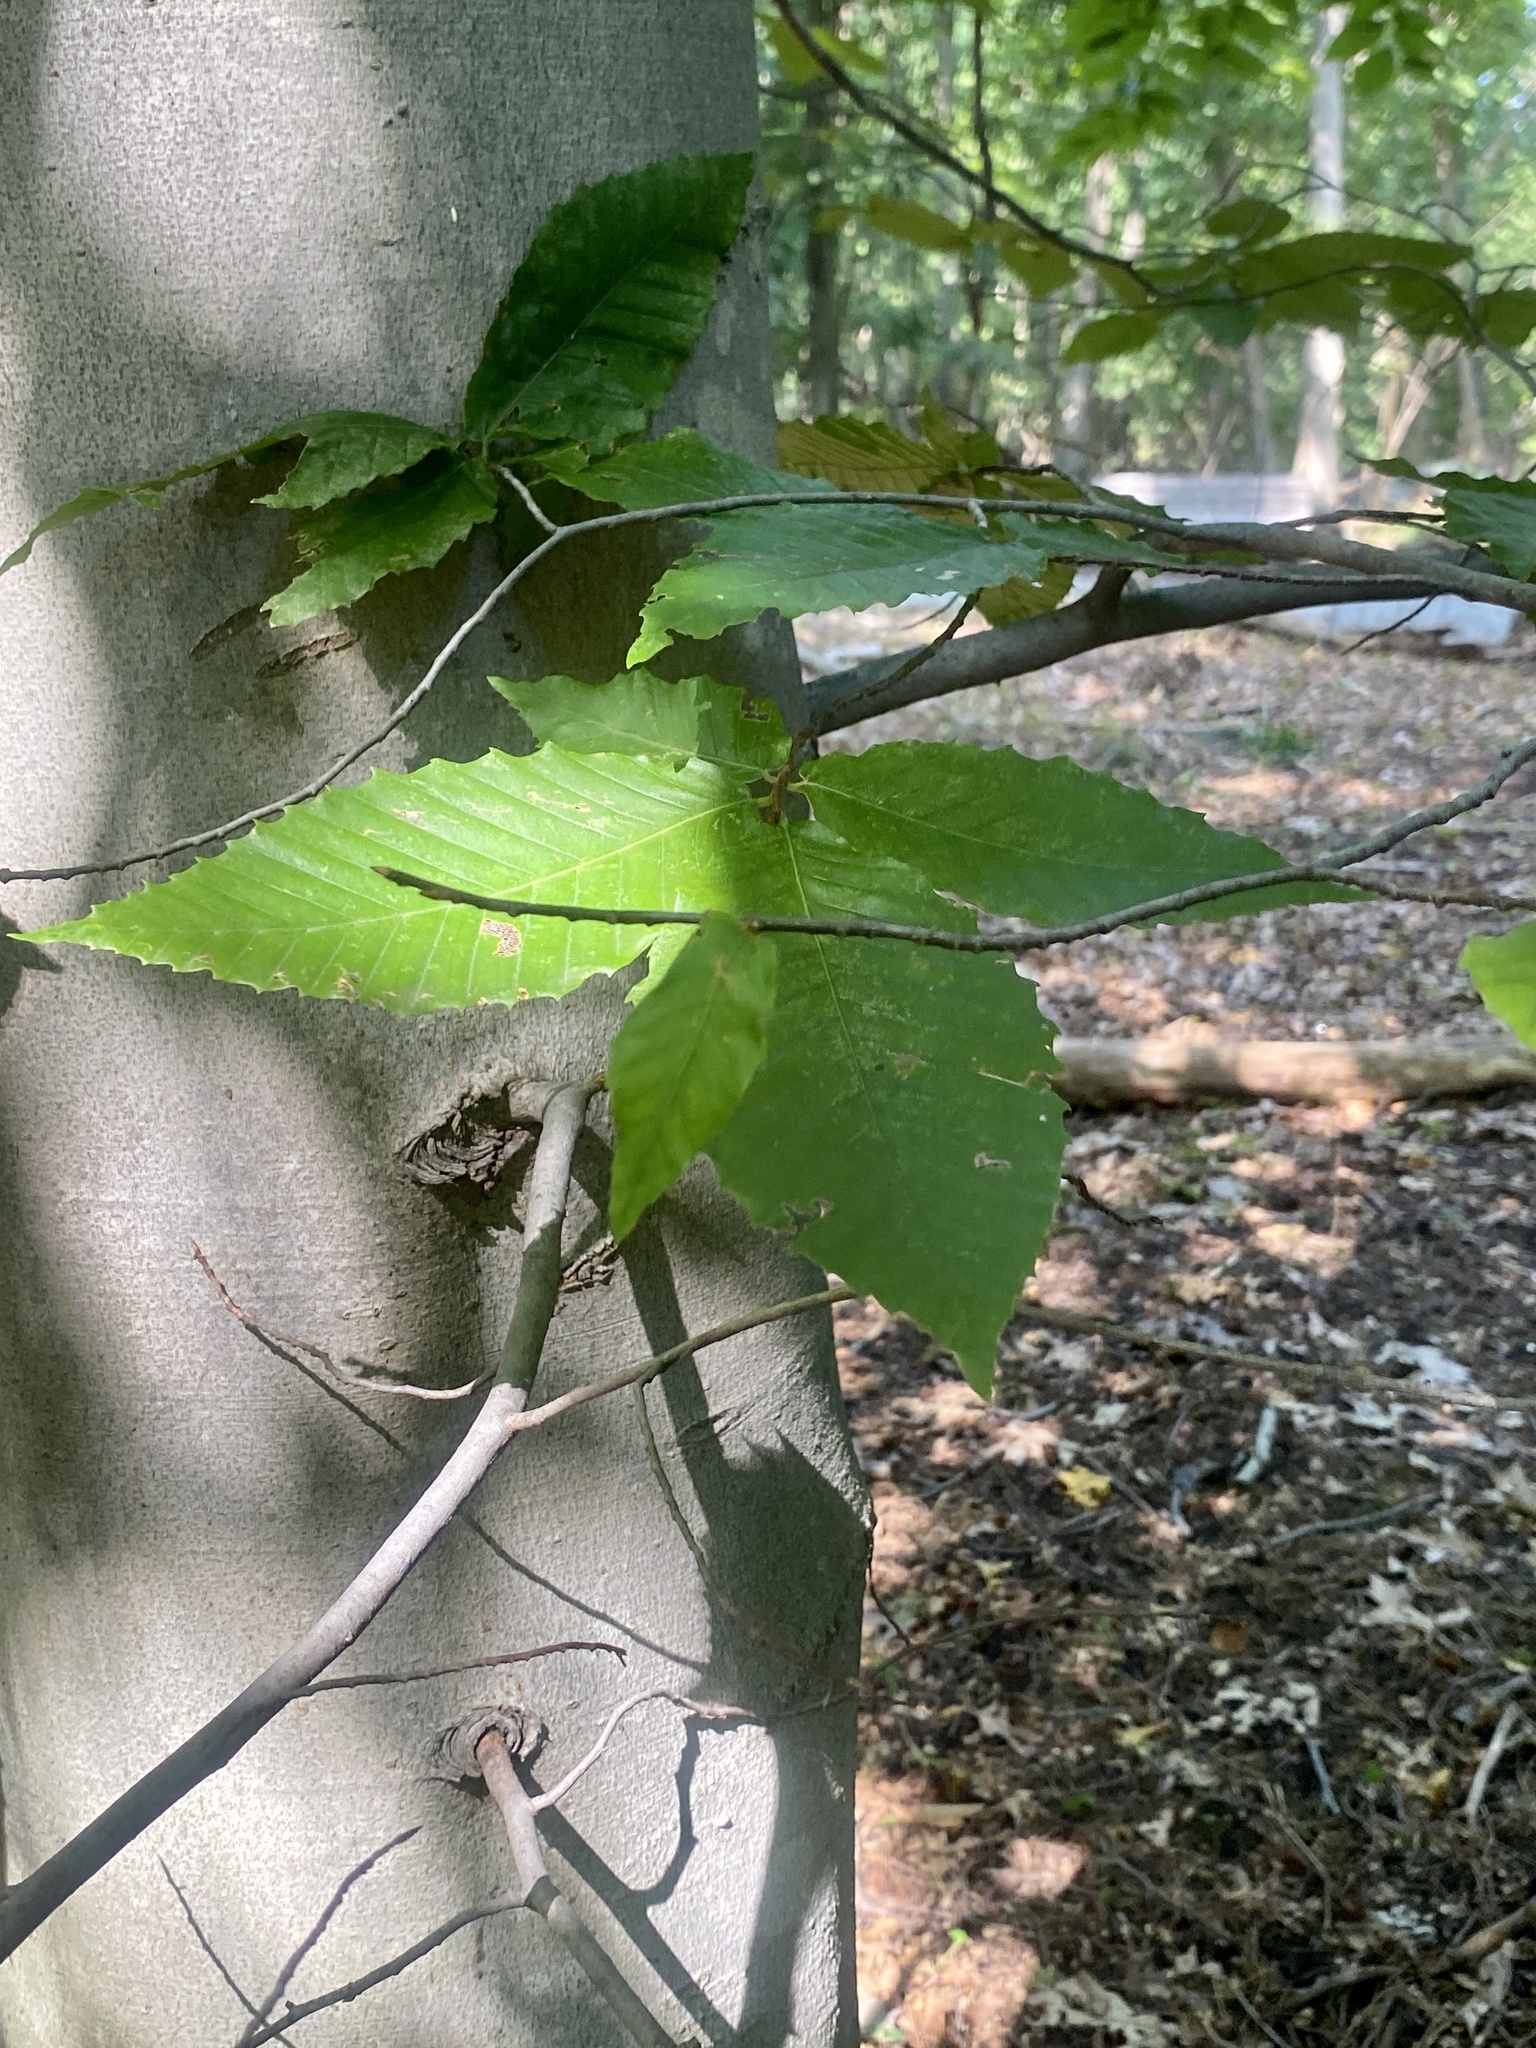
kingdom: Plantae
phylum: Tracheophyta
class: Magnoliopsida
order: Fagales
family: Fagaceae
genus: Fagus
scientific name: Fagus grandifolia
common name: American beech
